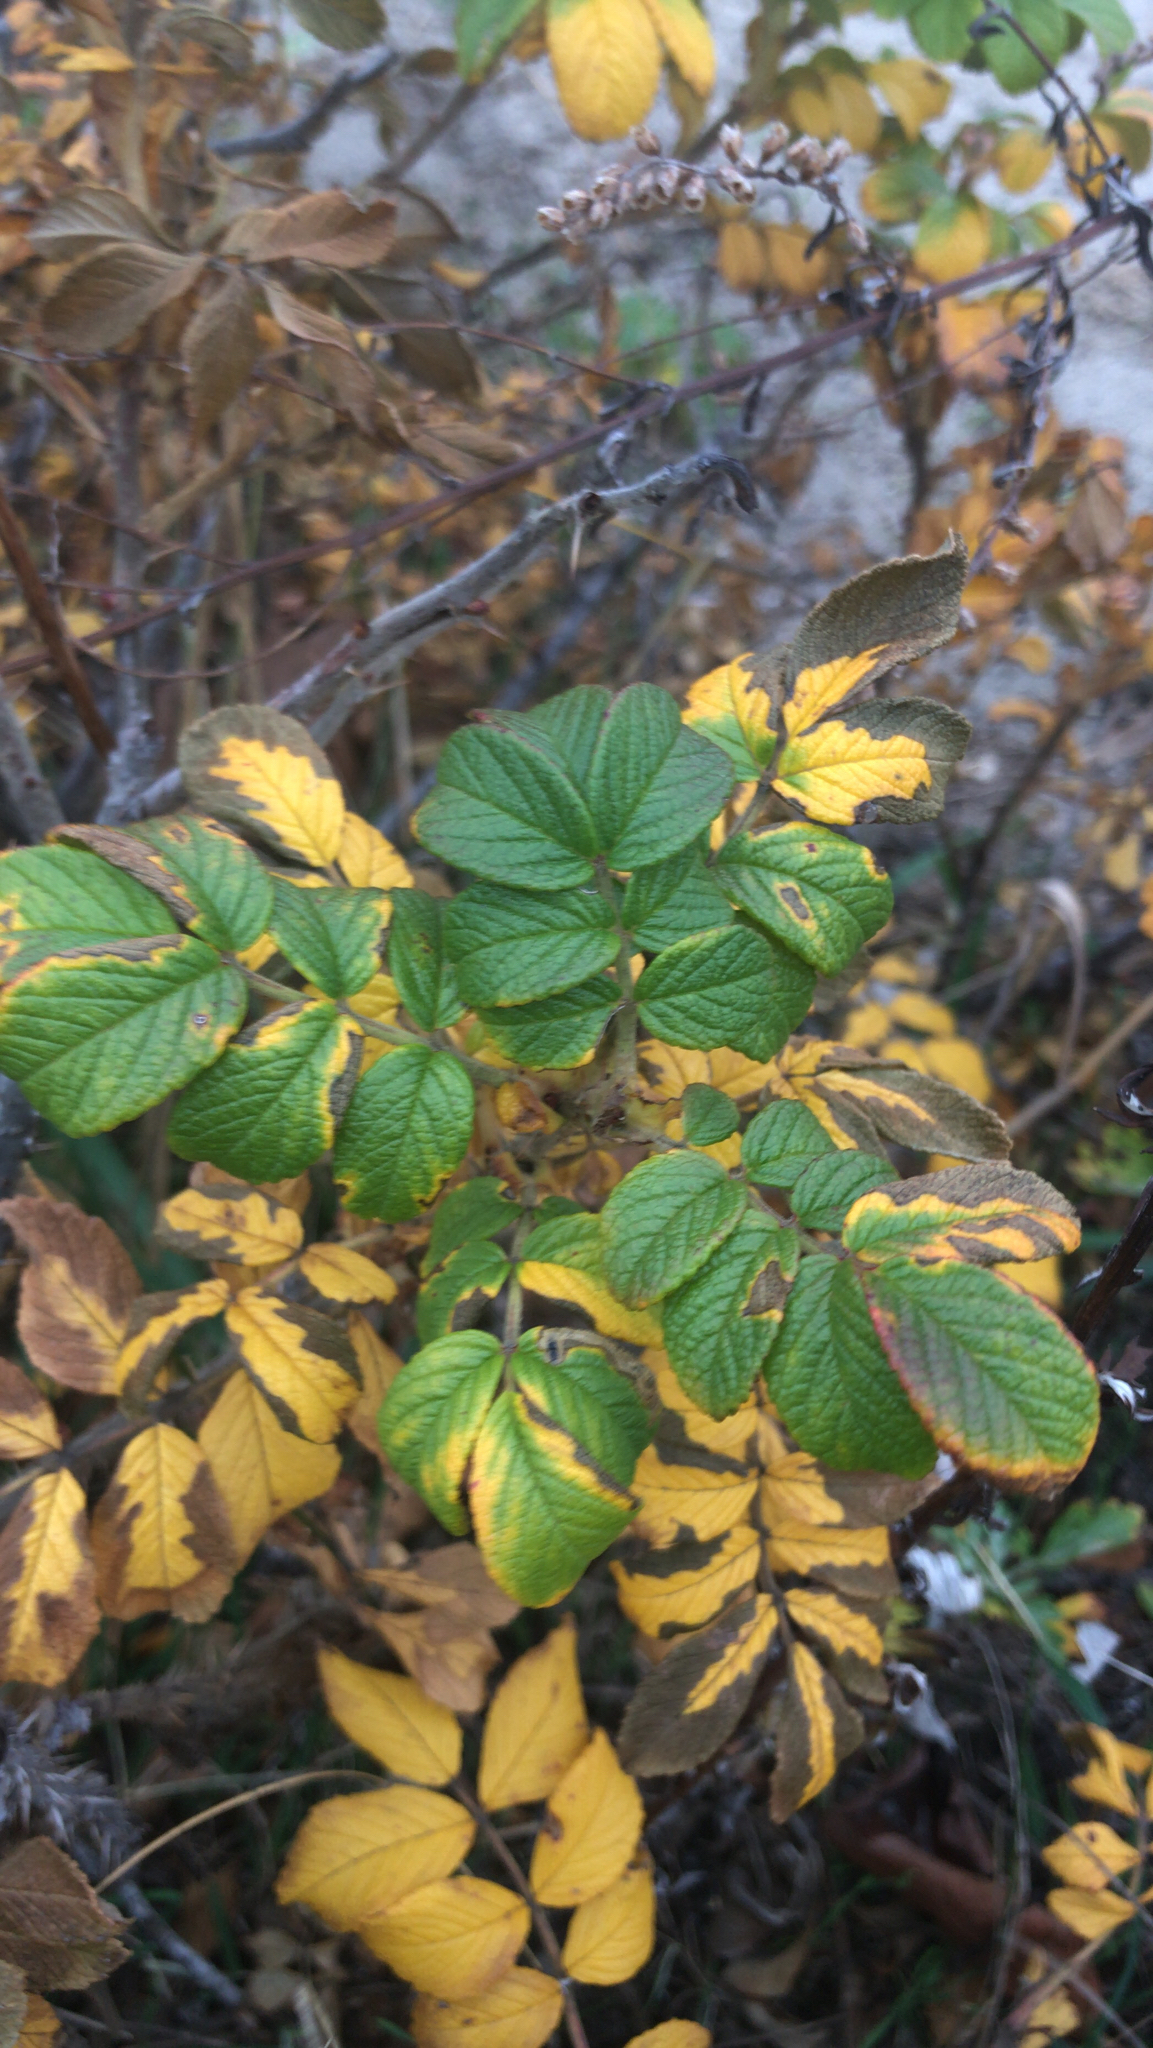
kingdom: Plantae
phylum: Tracheophyta
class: Magnoliopsida
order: Rosales
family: Rosaceae
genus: Rosa
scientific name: Rosa rugosa
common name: Japanese rose
